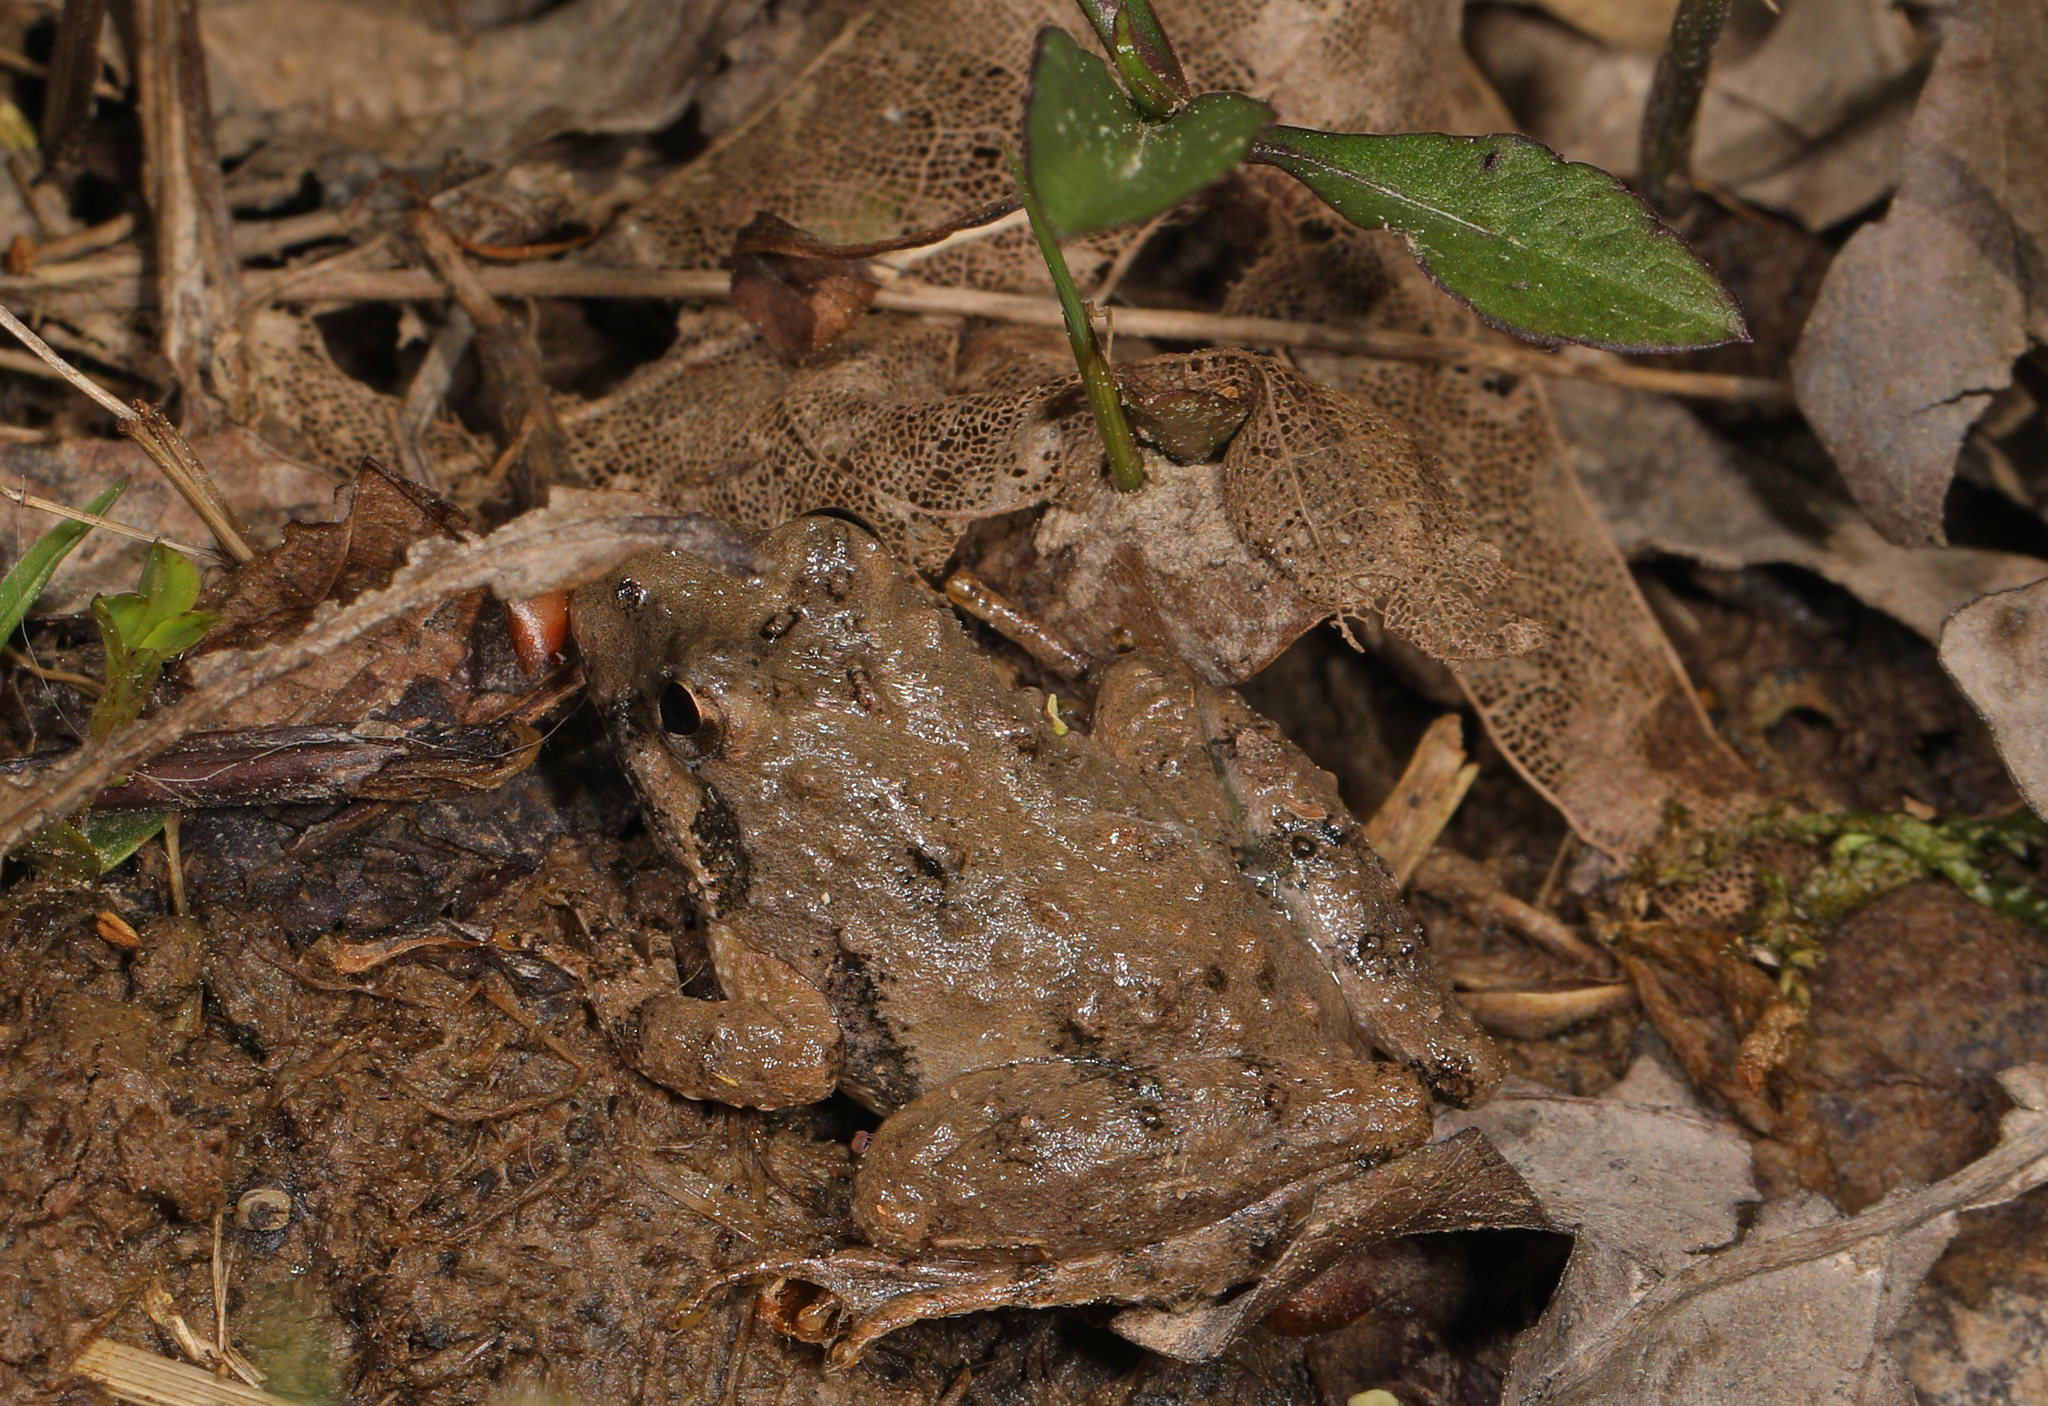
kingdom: Animalia
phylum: Chordata
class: Amphibia
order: Anura
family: Hylidae
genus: Acris
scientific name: Acris crepitans
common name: Northern cricket frog
